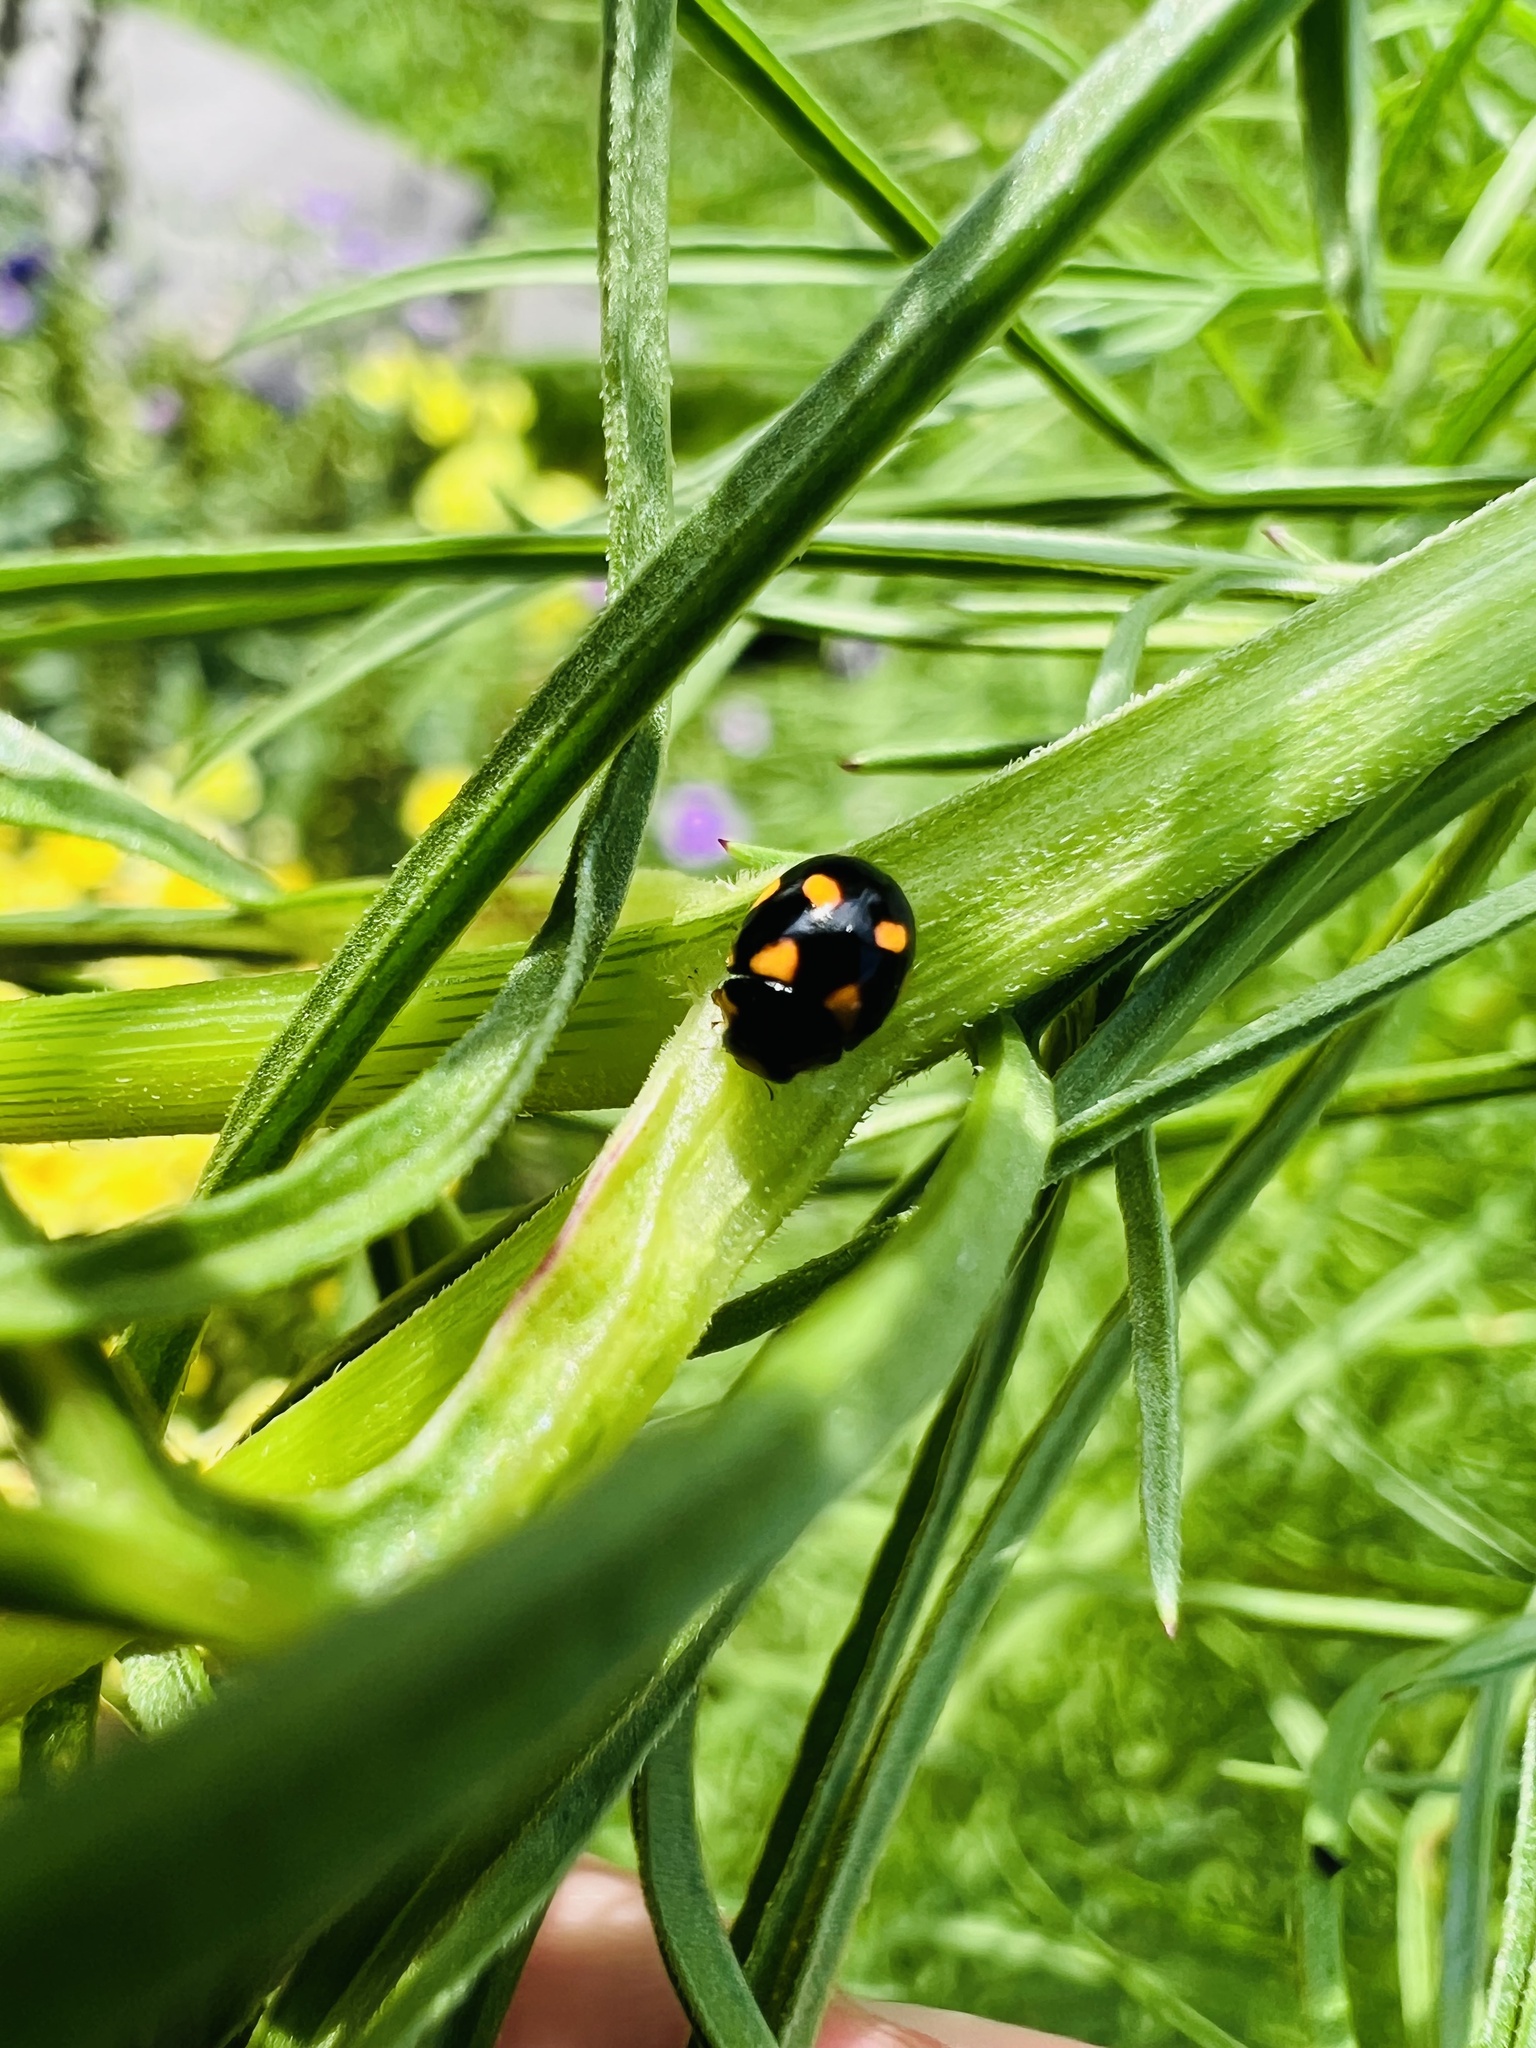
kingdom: Animalia
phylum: Arthropoda
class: Insecta
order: Coleoptera
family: Coccinellidae
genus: Brachiacantha
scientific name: Brachiacantha ursina
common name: Ursine spurleg lady beetle
